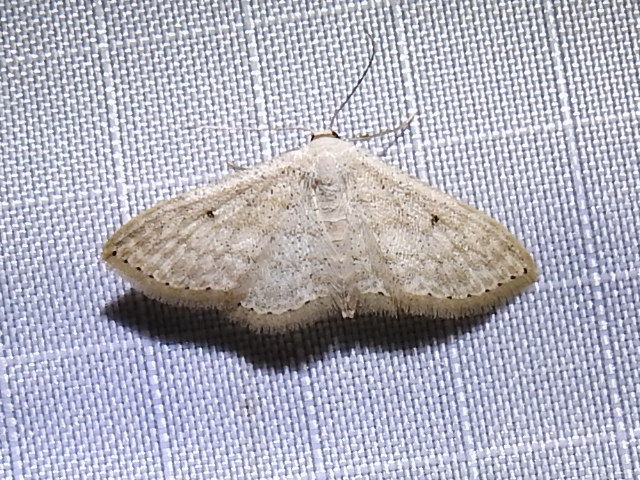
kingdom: Animalia
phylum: Arthropoda
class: Insecta
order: Lepidoptera
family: Geometridae
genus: Scopula
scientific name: Scopula benitaria
